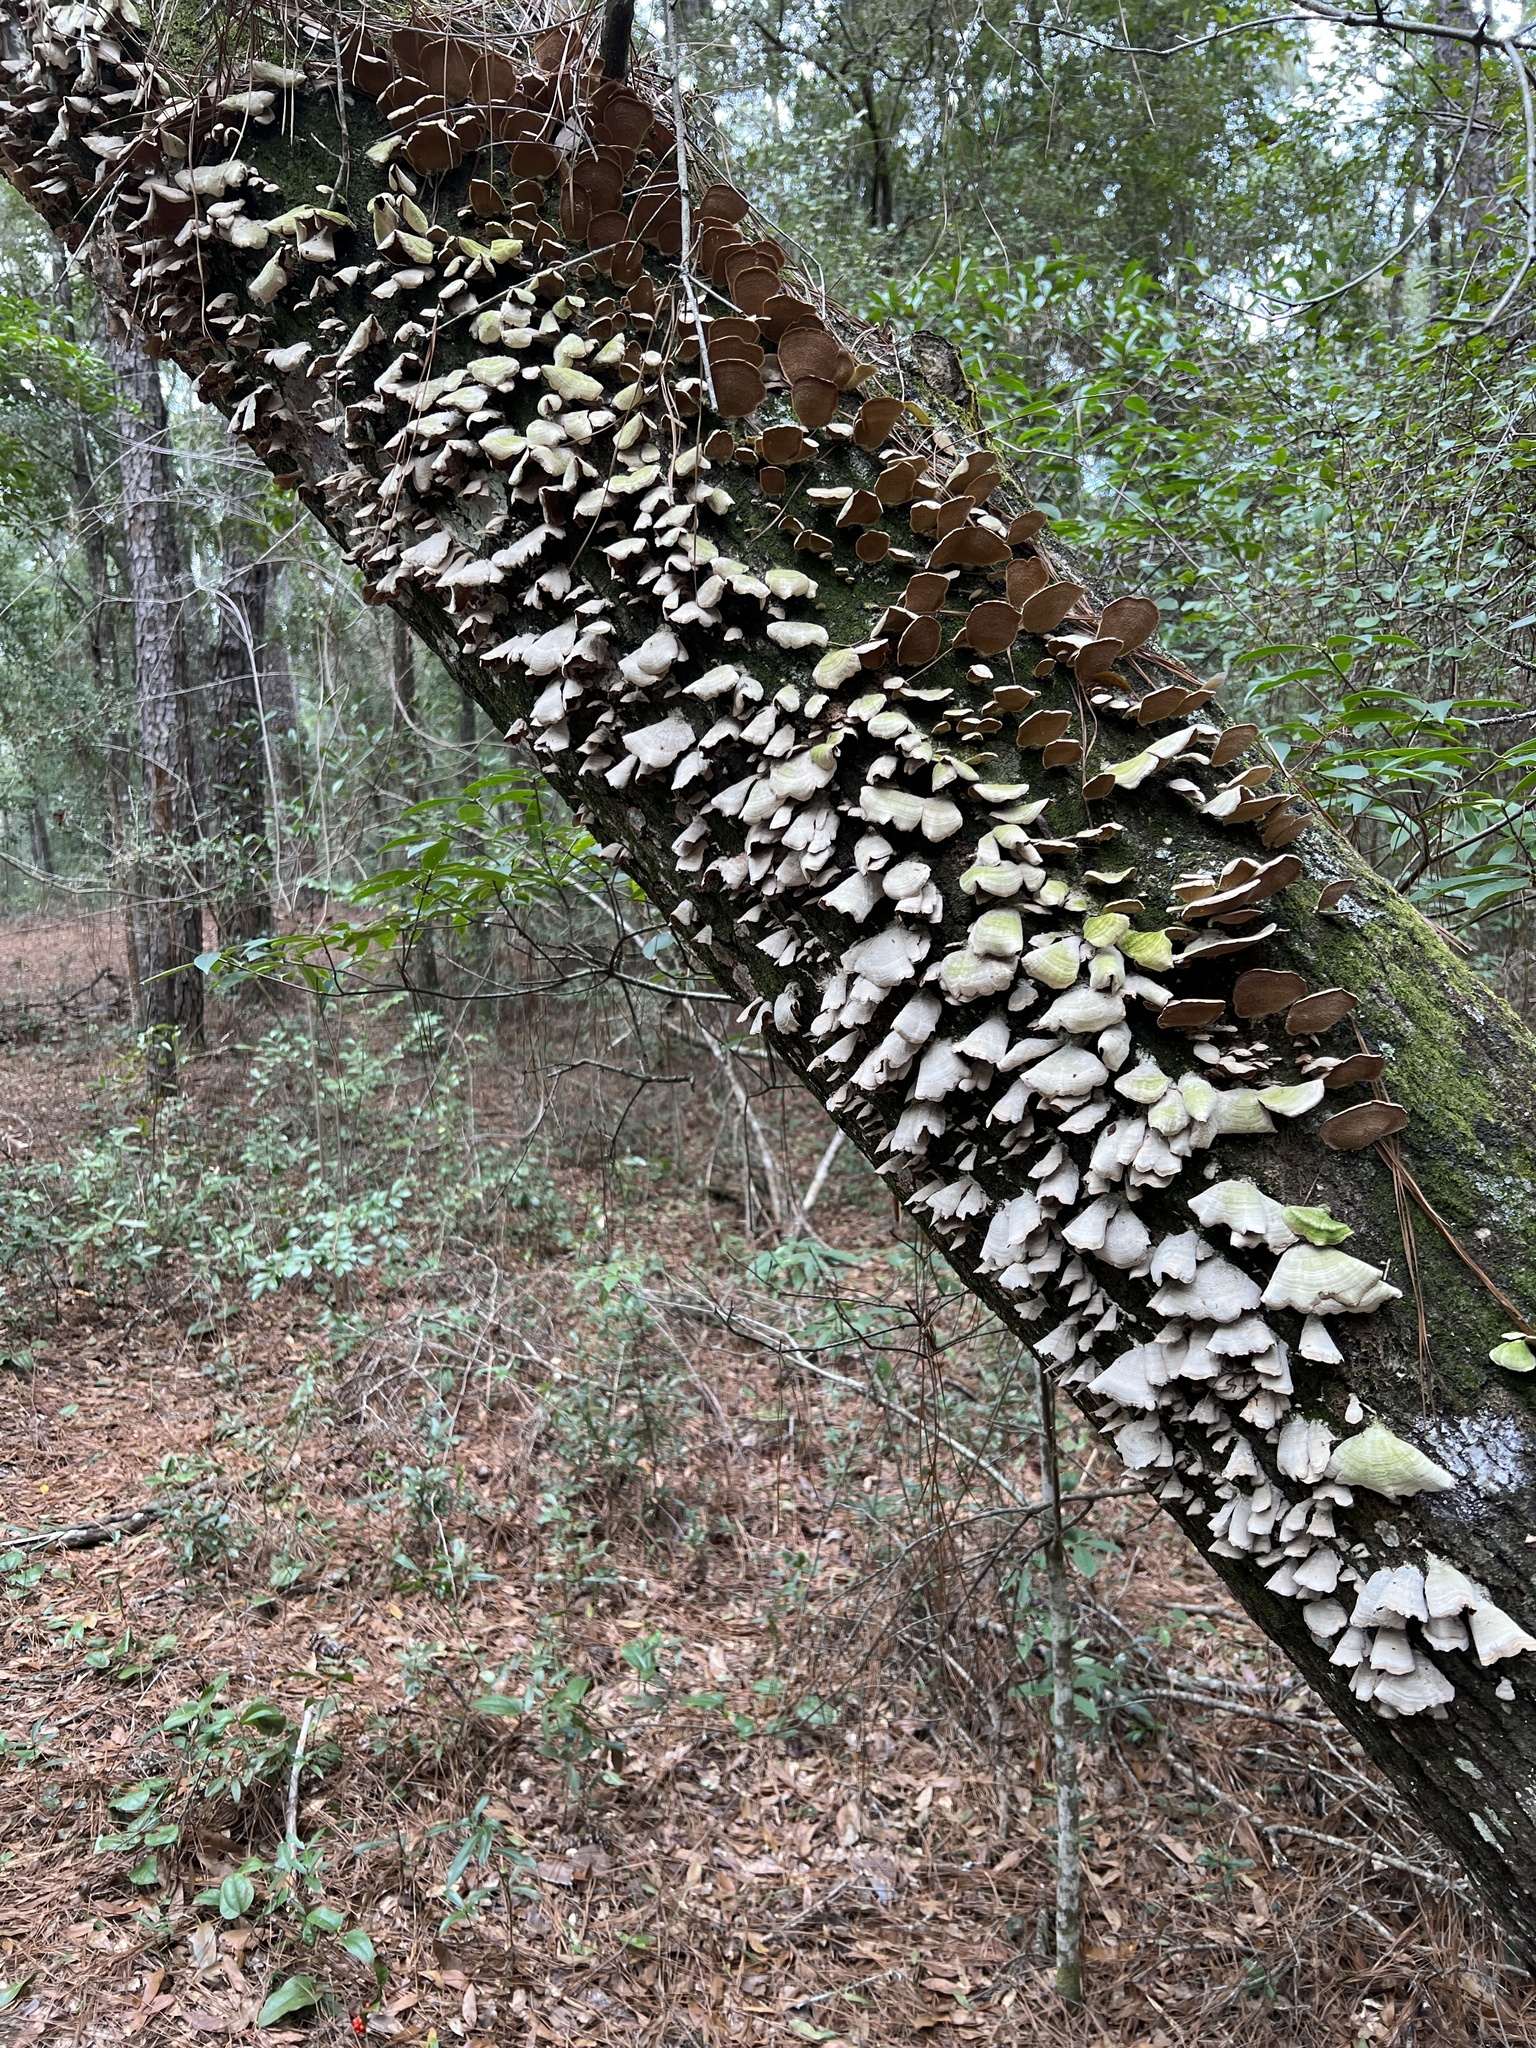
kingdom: Fungi
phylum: Basidiomycota
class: Agaricomycetes
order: Hymenochaetales
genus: Trichaptum
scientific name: Trichaptum biforme
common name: Violet-toothed polypore
